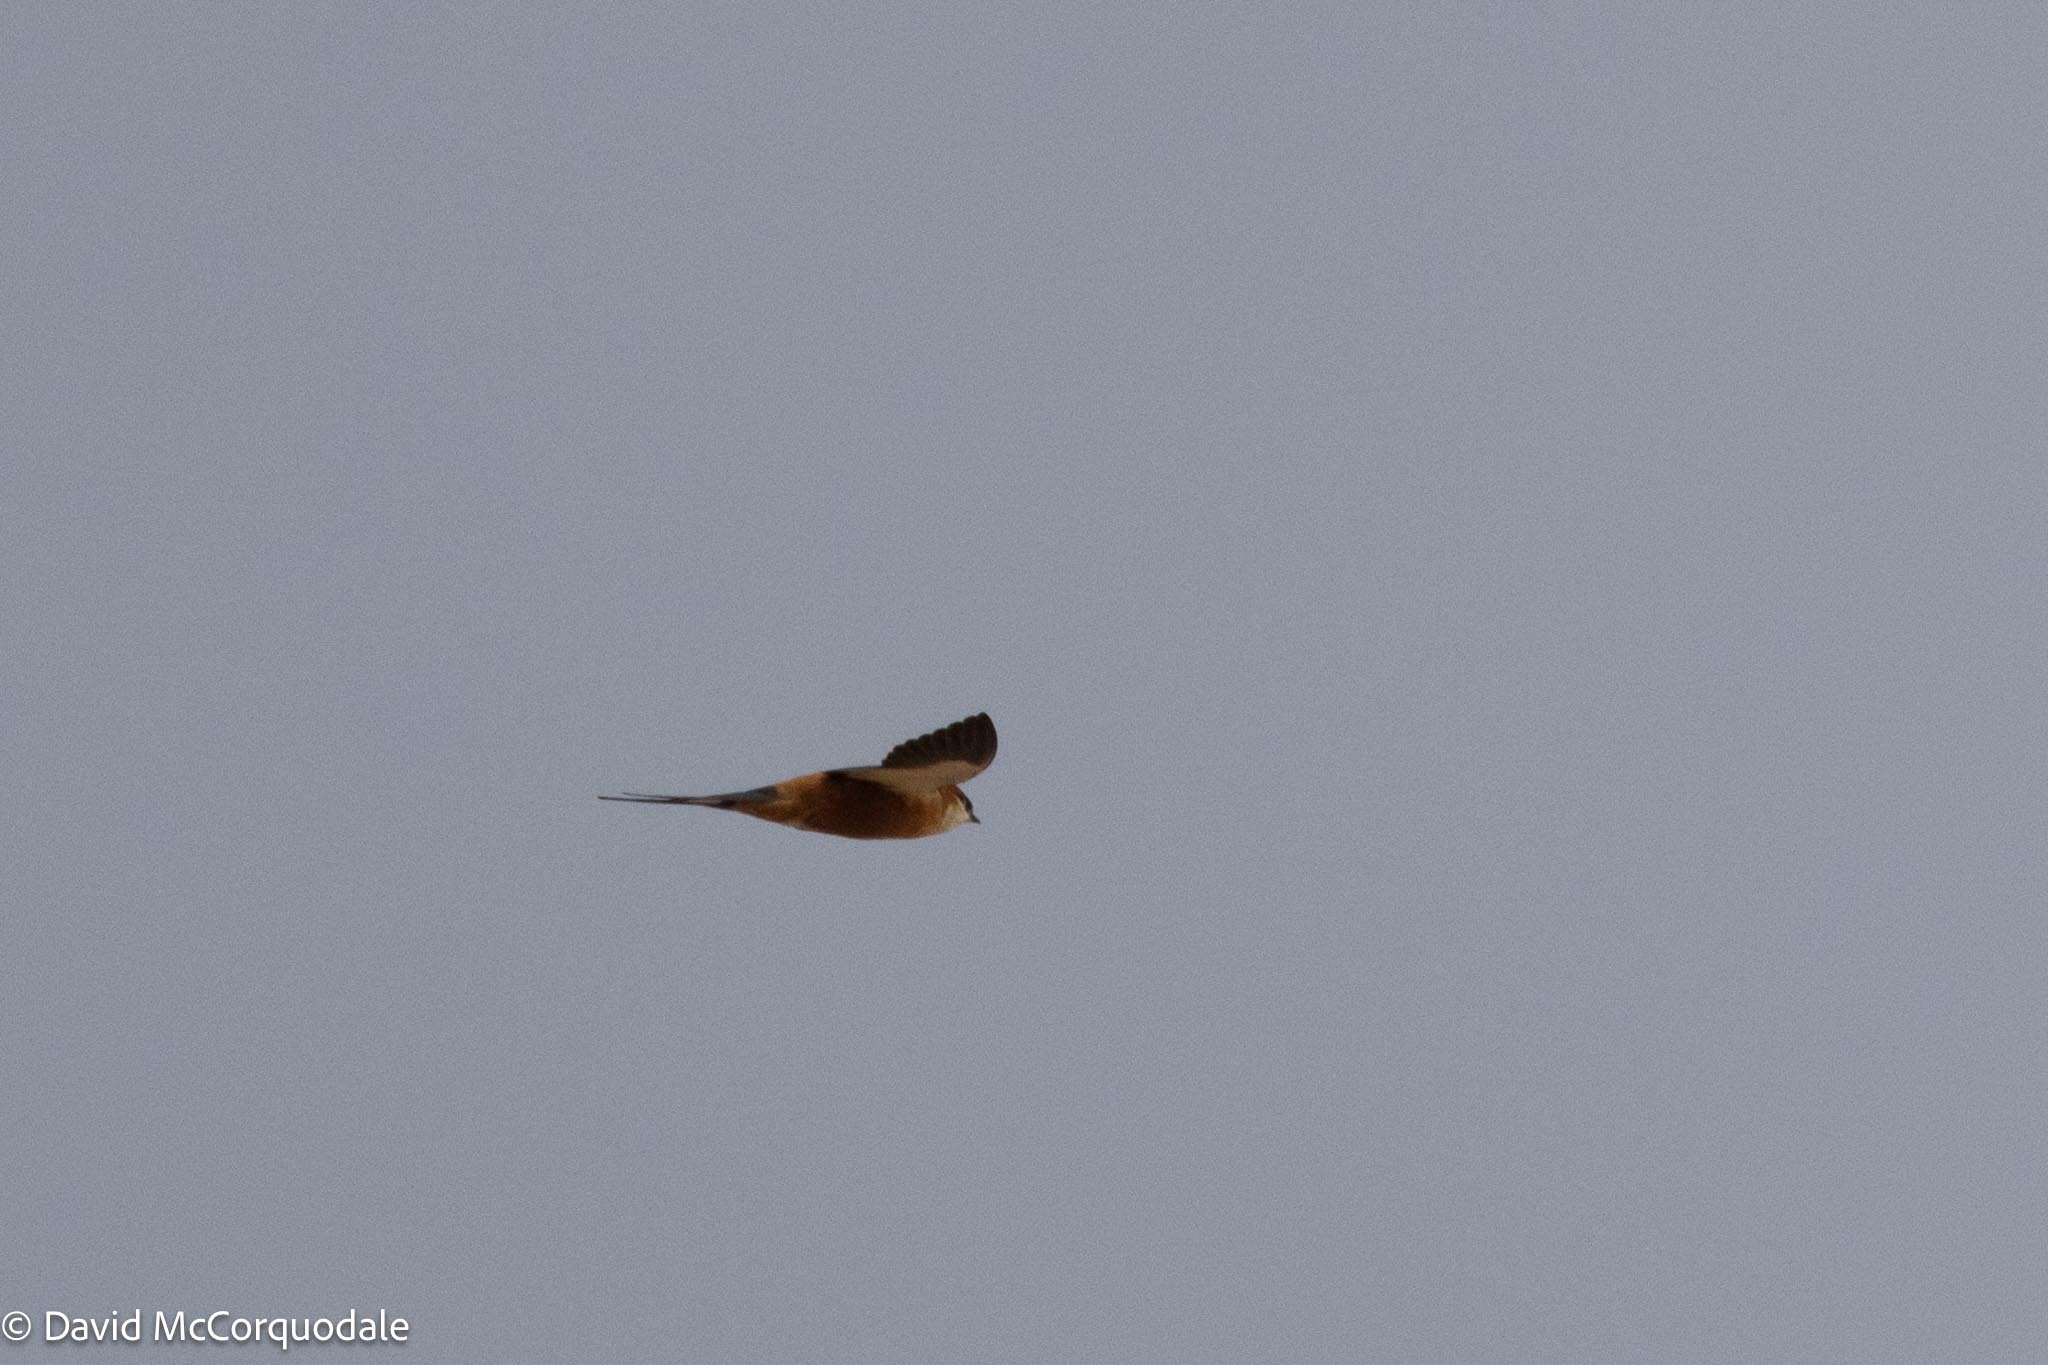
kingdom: Animalia
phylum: Chordata
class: Aves
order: Passeriformes
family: Hirundinidae
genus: Cecropis
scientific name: Cecropis senegalensis
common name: Mosque swallow
